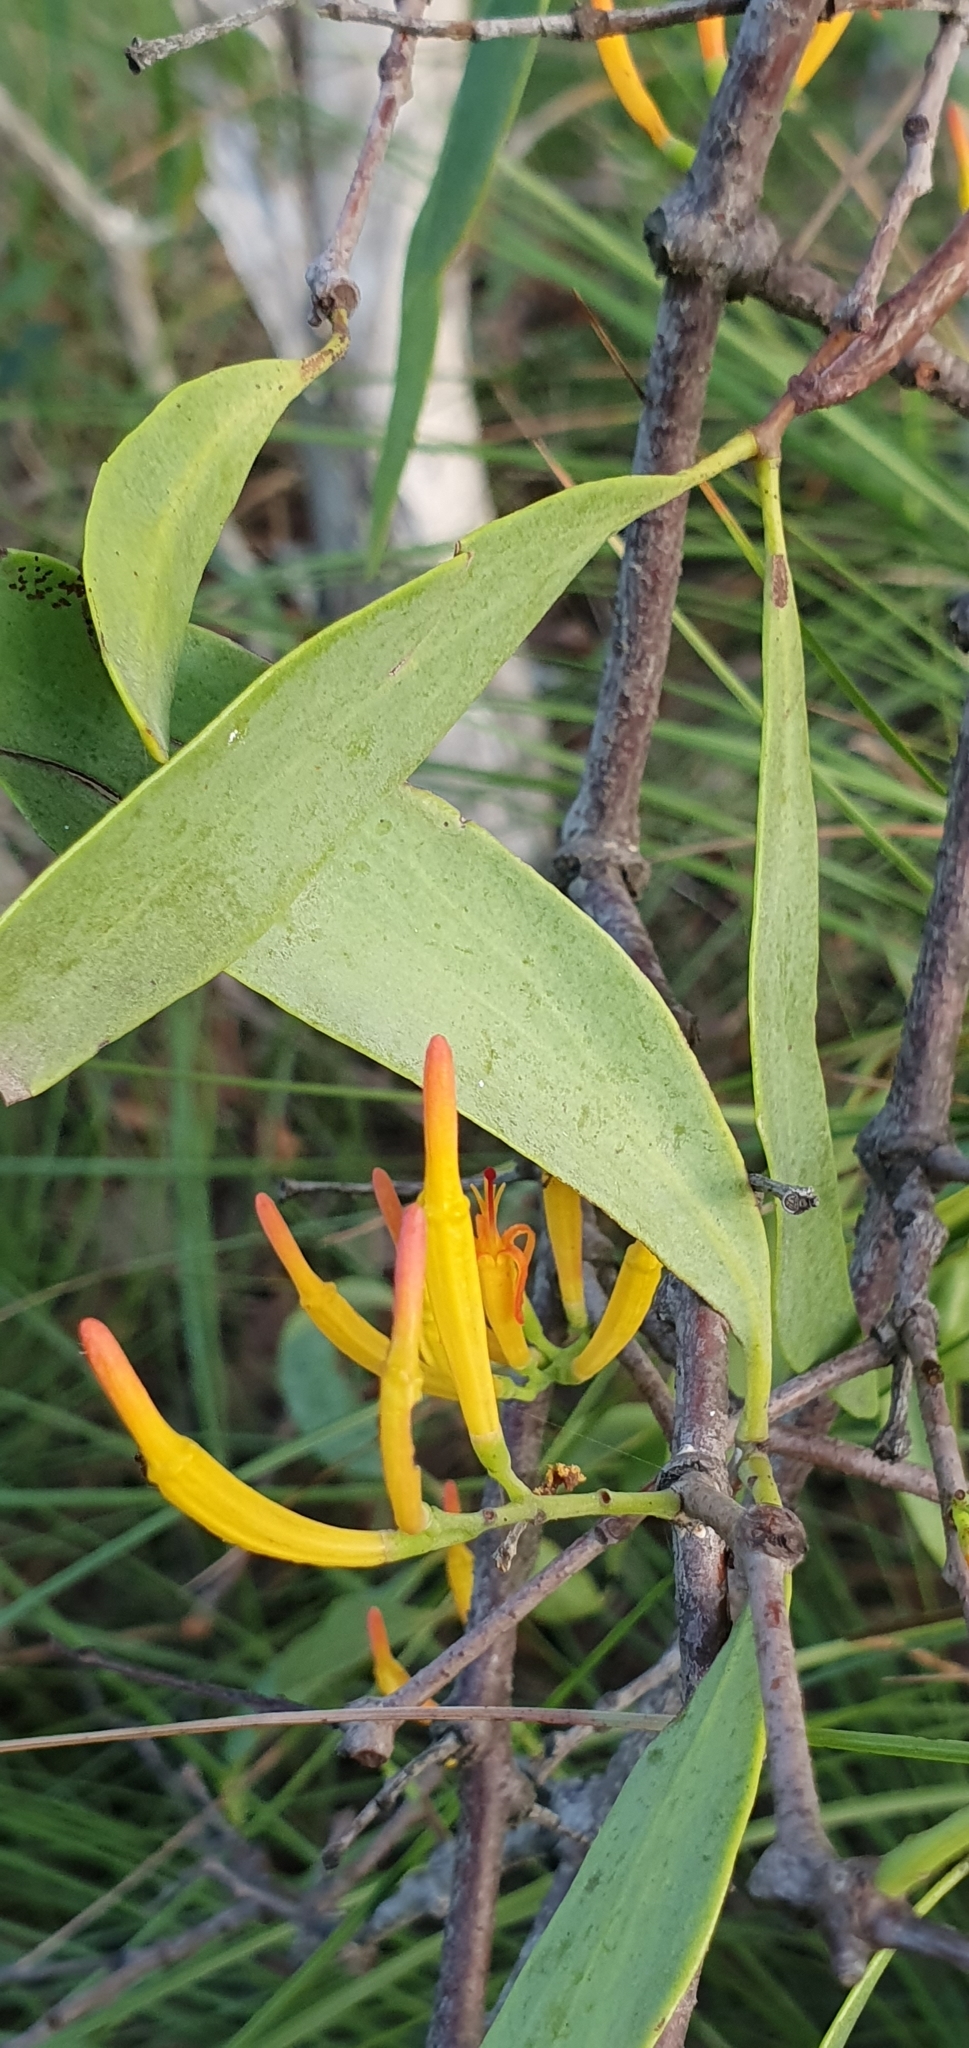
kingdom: Plantae
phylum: Tracheophyta
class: Magnoliopsida
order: Santalales
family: Loranthaceae
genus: Dendrophthoe
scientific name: Dendrophthoe glabrescens
